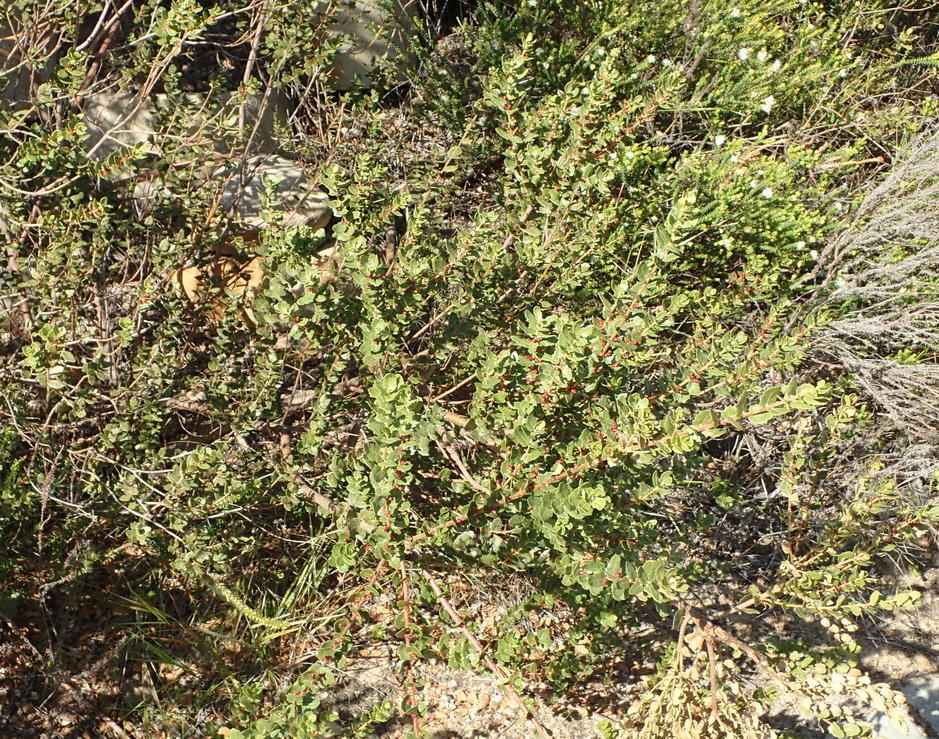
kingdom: Plantae
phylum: Tracheophyta
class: Magnoliopsida
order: Fagales
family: Myricaceae
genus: Morella
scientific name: Morella cordifolia
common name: Waxberry
